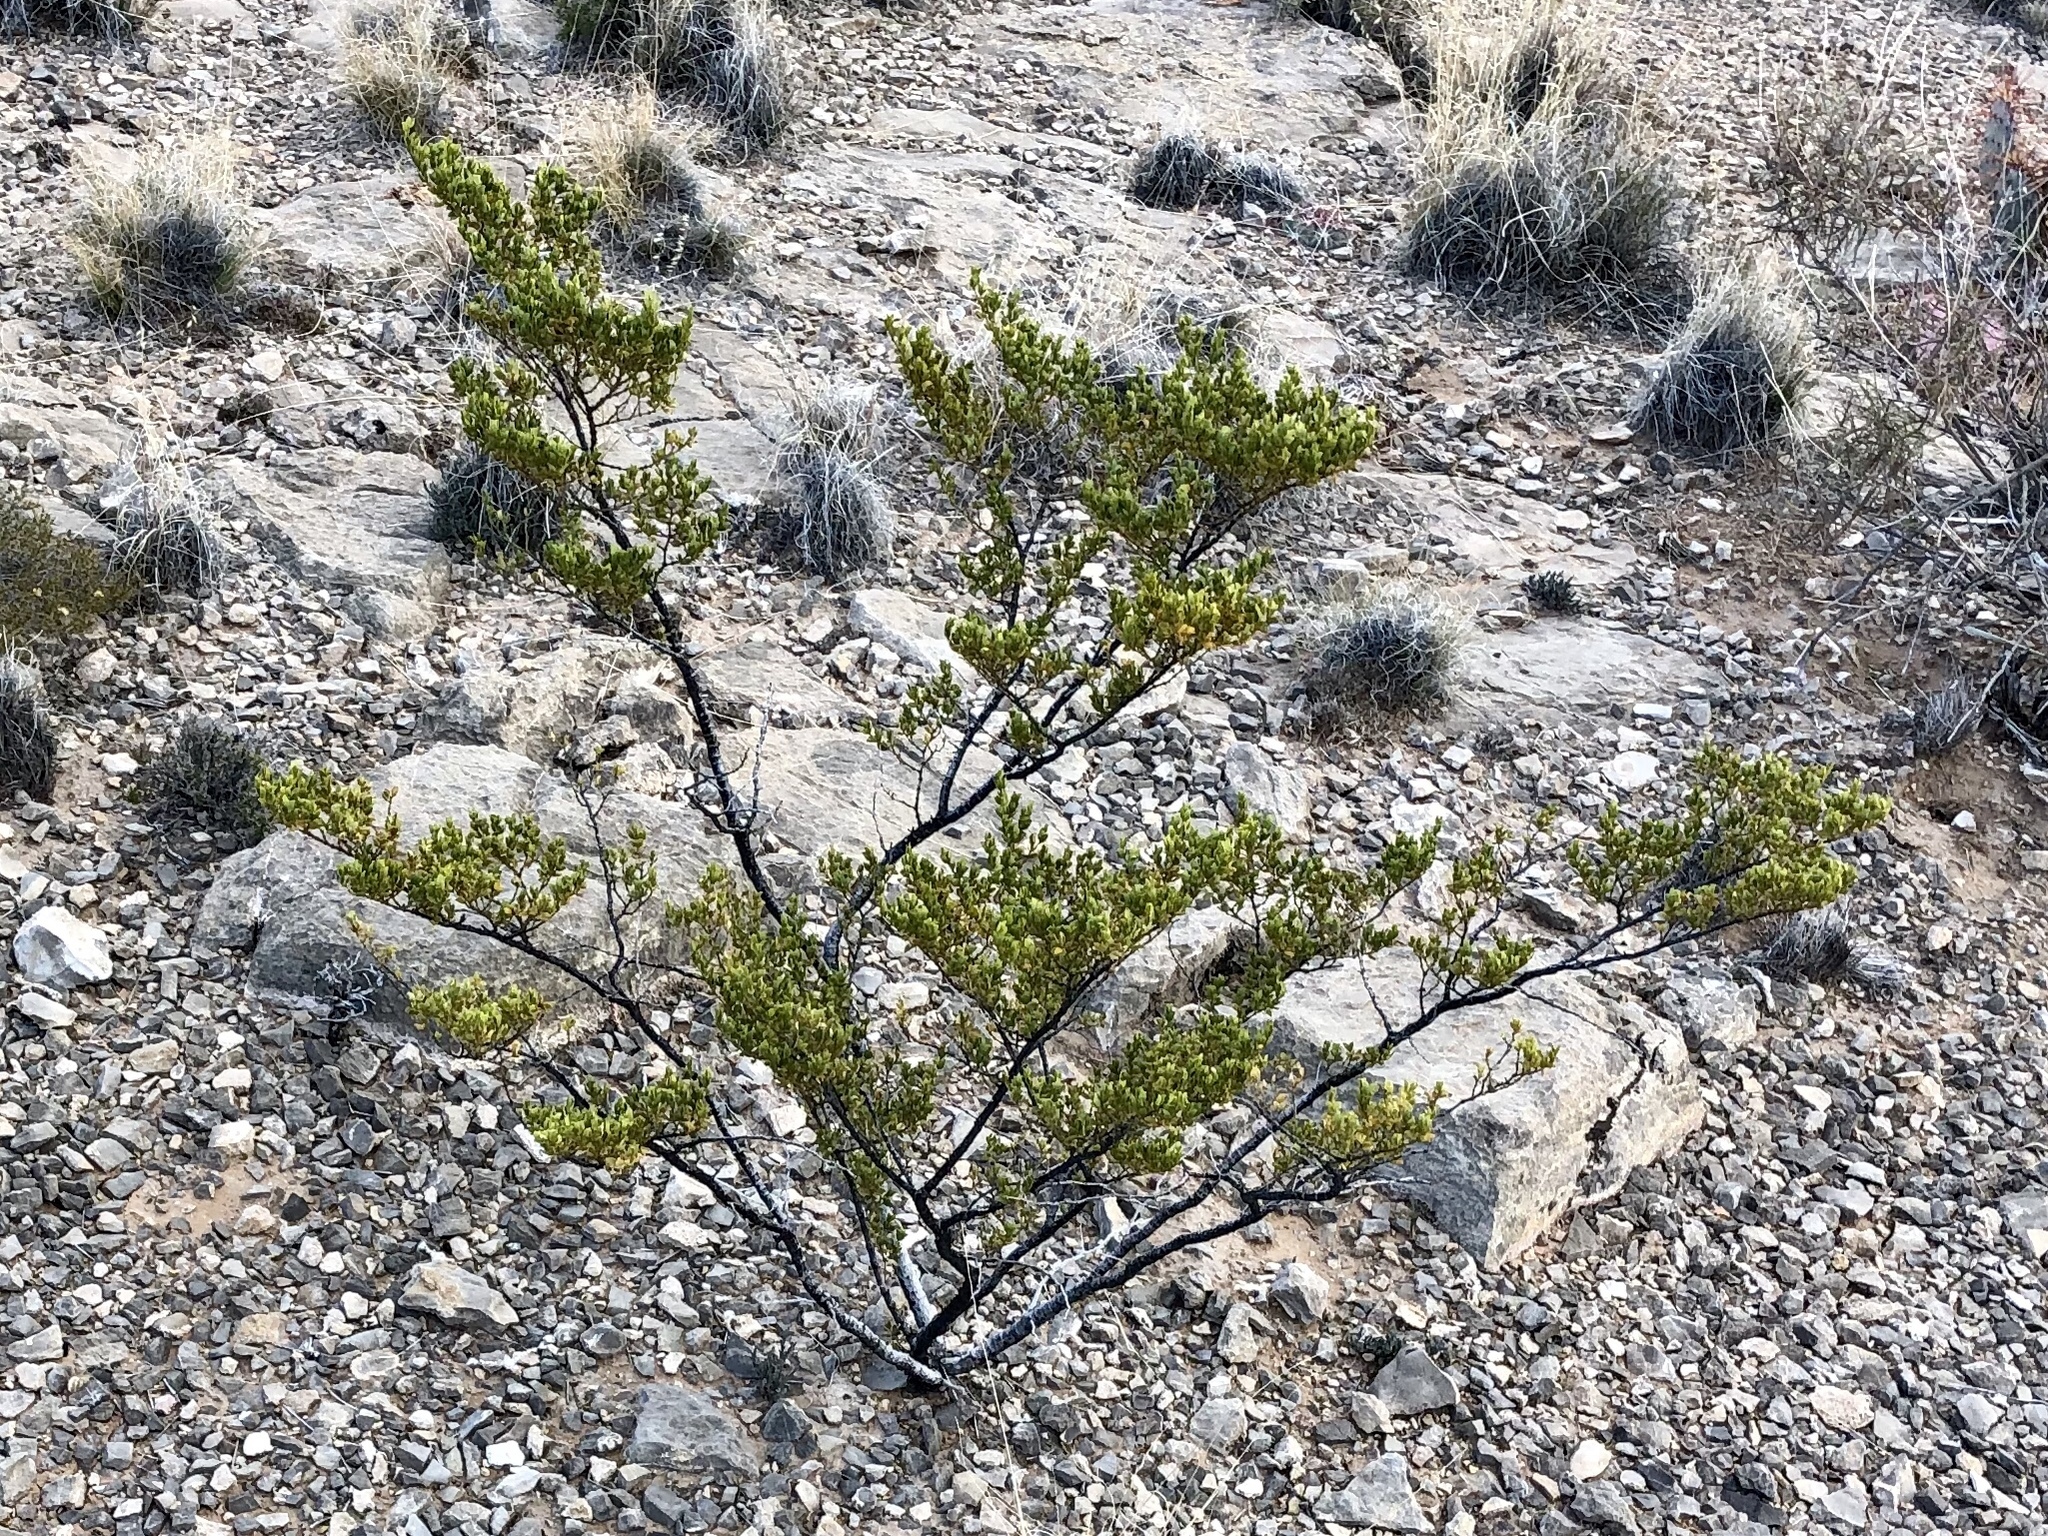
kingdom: Plantae
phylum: Tracheophyta
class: Magnoliopsida
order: Zygophyllales
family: Zygophyllaceae
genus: Larrea
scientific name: Larrea tridentata
